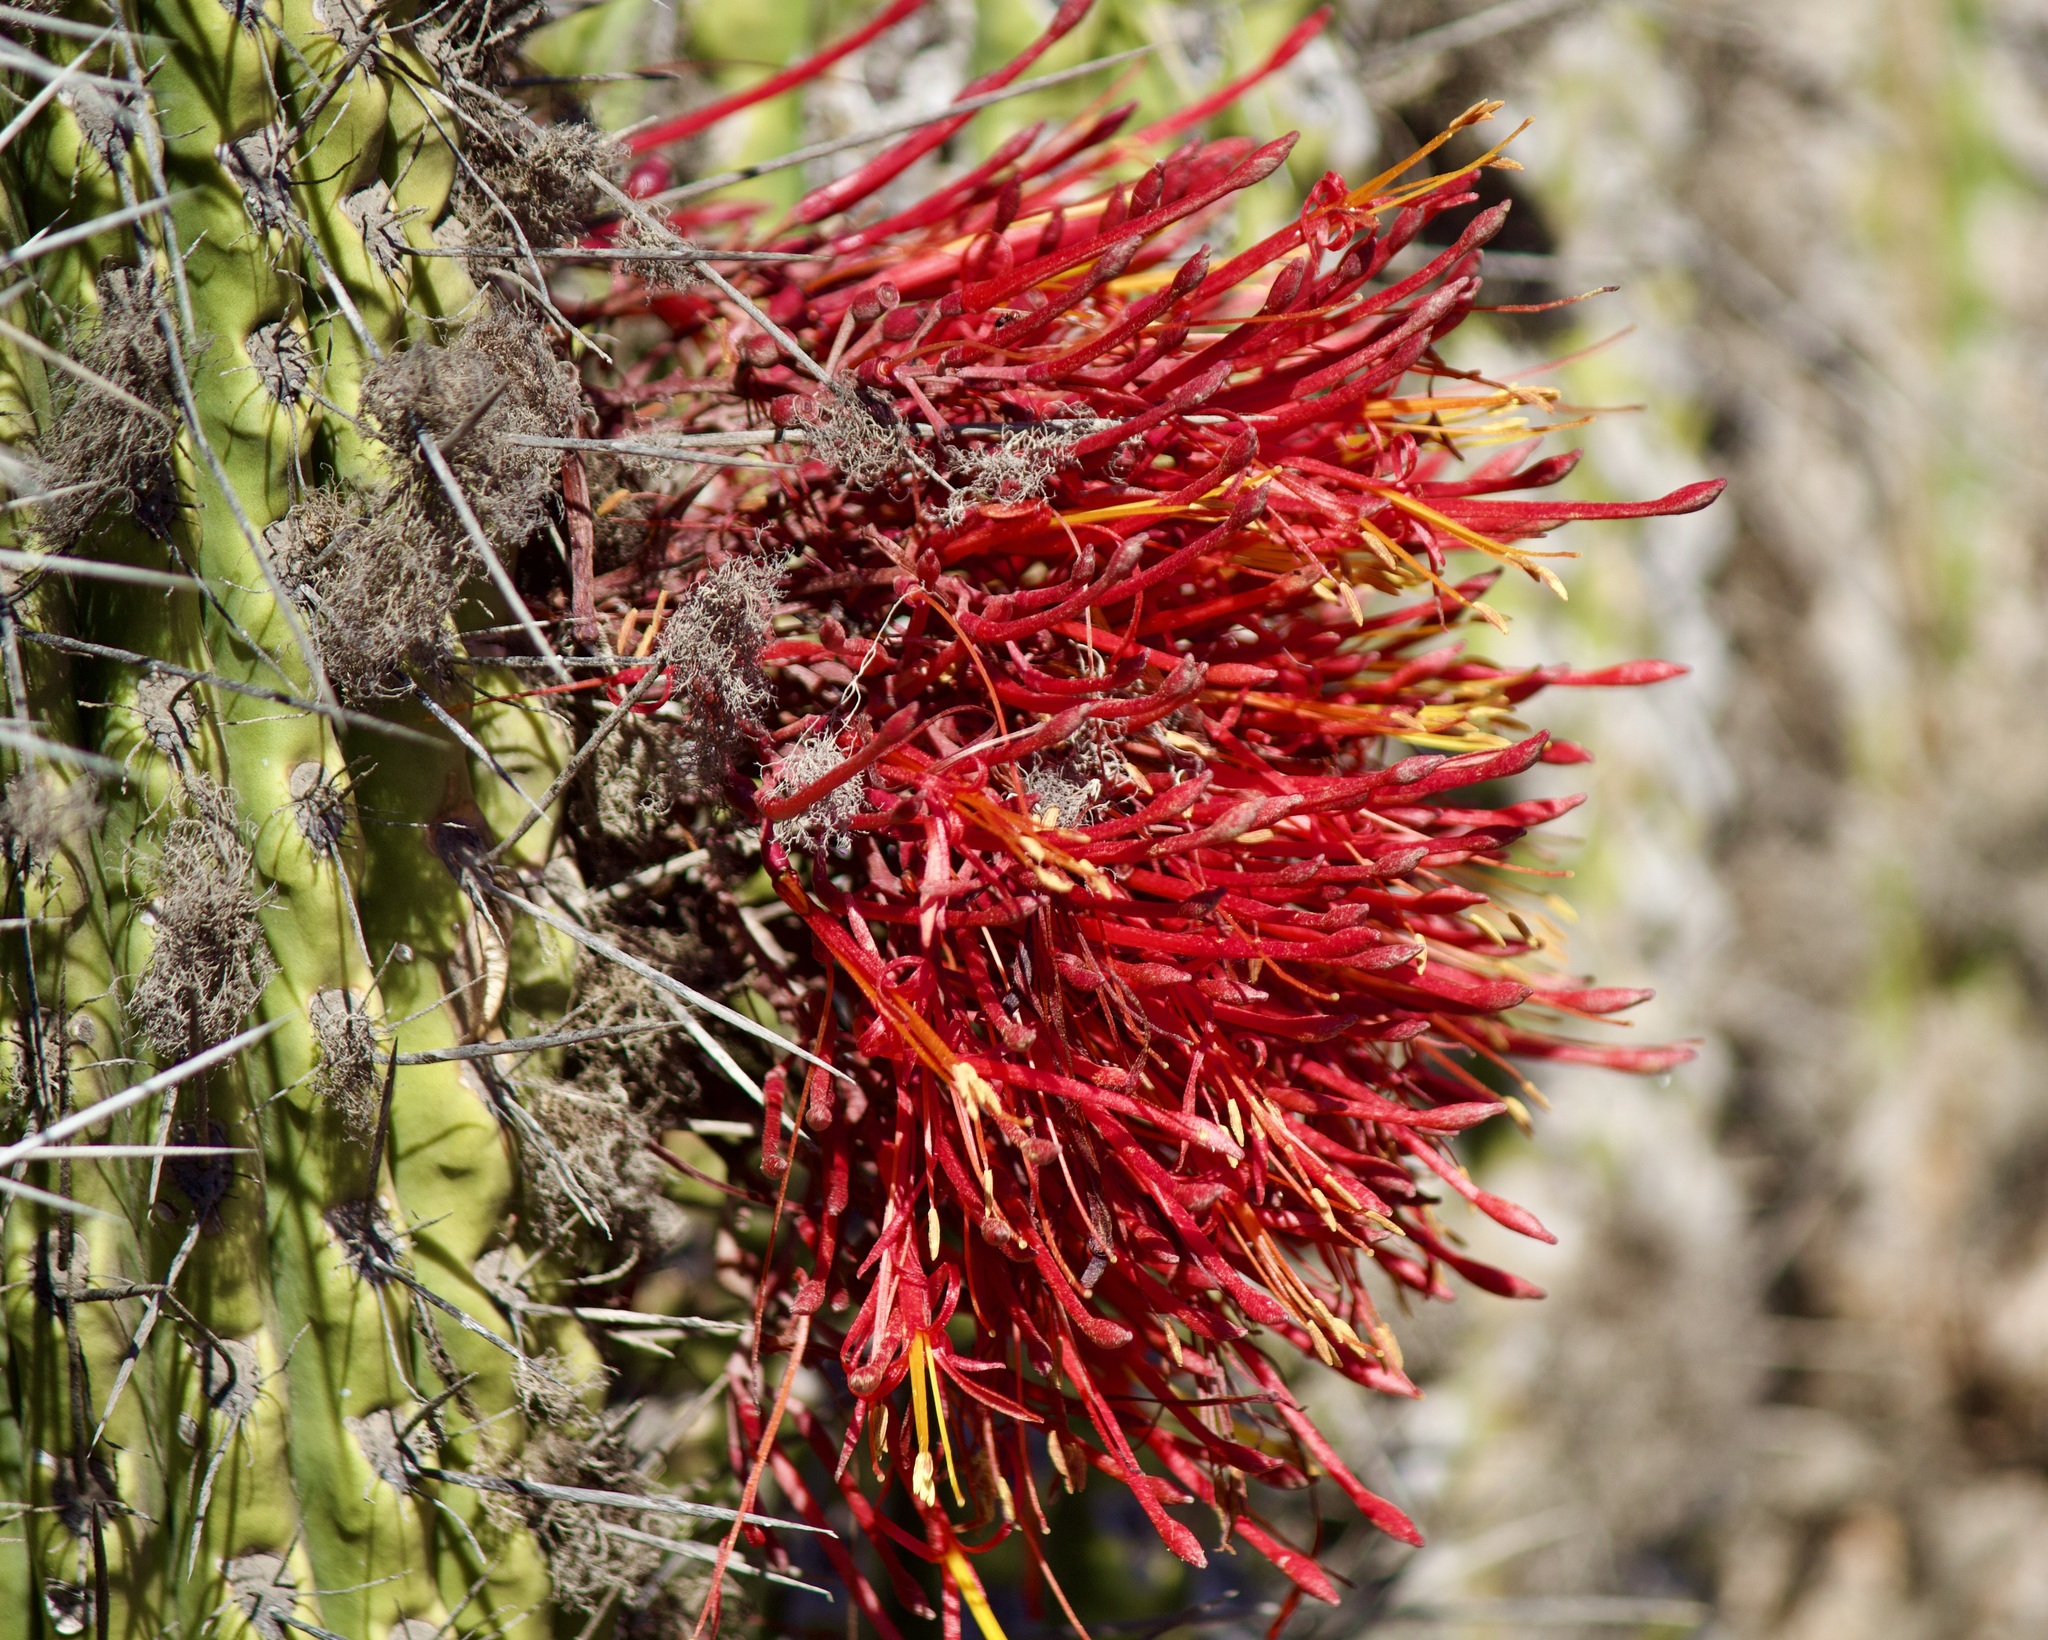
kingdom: Plantae
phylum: Tracheophyta
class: Magnoliopsida
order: Santalales
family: Loranthaceae
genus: Tristerix
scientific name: Tristerix aphyllus
